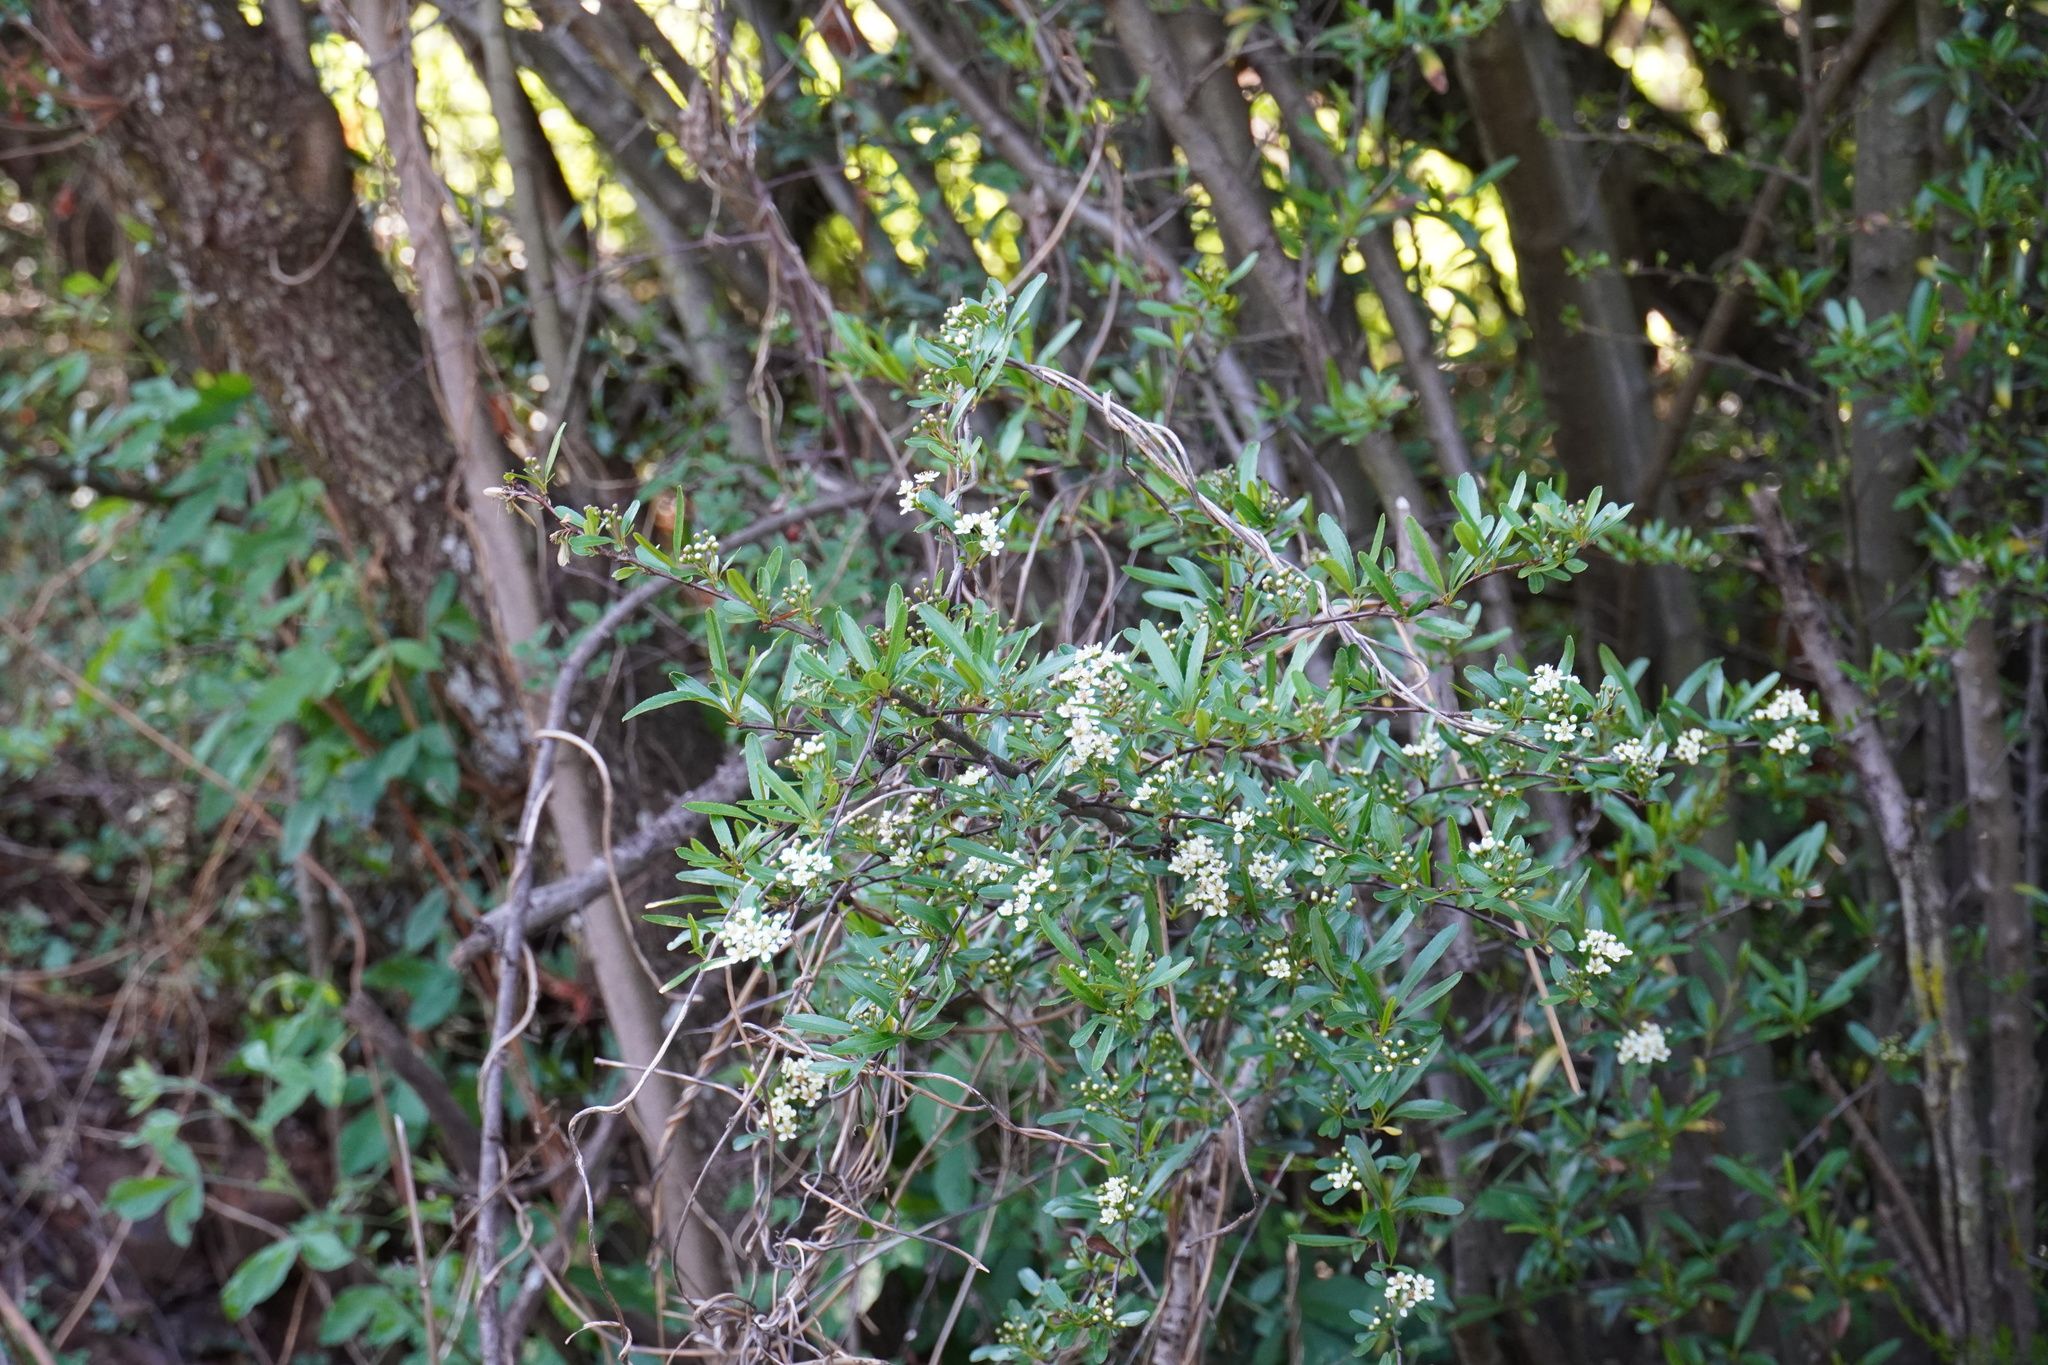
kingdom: Plantae
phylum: Tracheophyta
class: Magnoliopsida
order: Rosales
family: Rosaceae
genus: Pyracantha
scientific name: Pyracantha koidzumii
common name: Formosa firethorn
